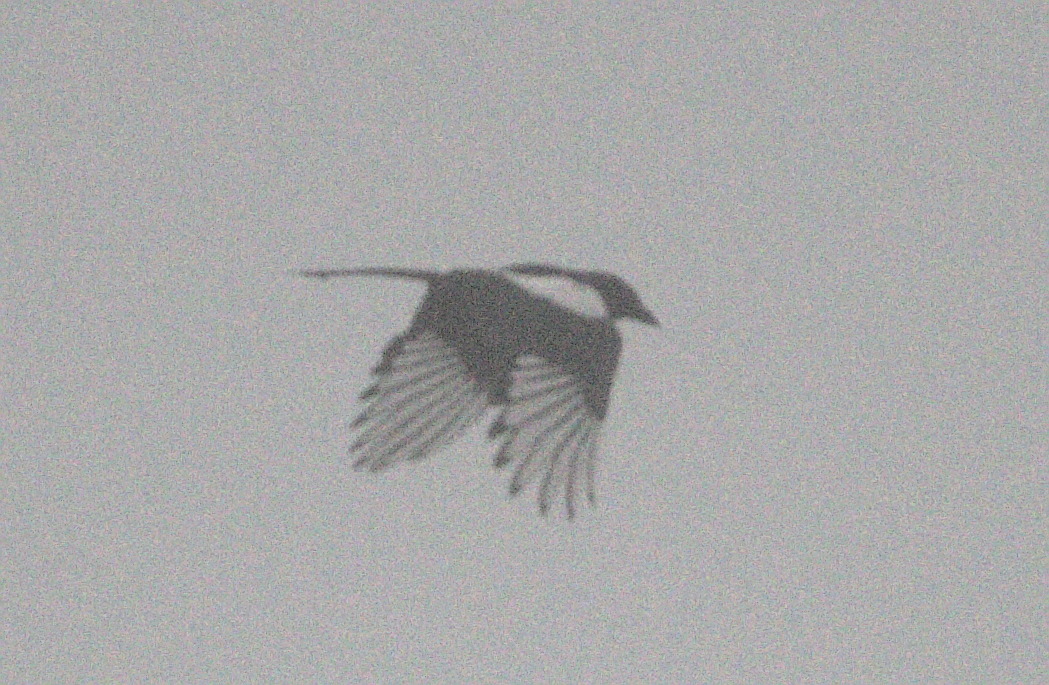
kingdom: Animalia
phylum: Chordata
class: Aves
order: Passeriformes
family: Corvidae
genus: Pica
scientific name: Pica hudsonia
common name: Black-billed magpie
